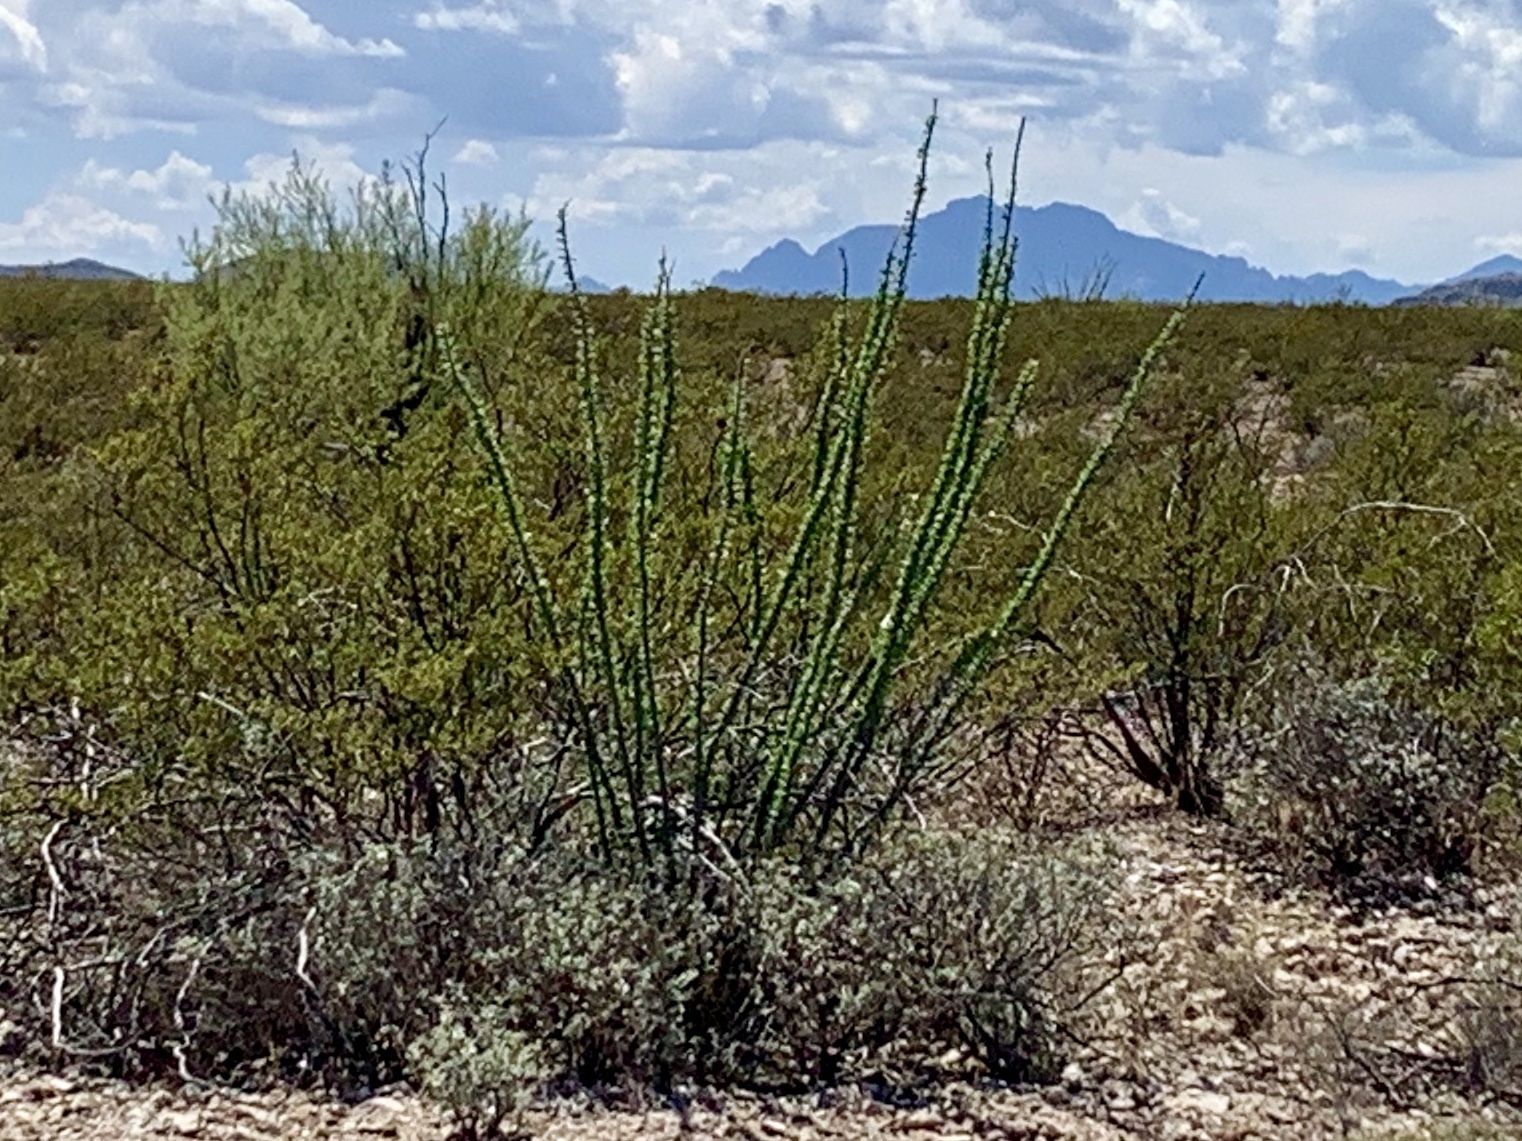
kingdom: Plantae
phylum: Tracheophyta
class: Magnoliopsida
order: Ericales
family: Fouquieriaceae
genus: Fouquieria
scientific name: Fouquieria splendens
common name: Vine-cactus
